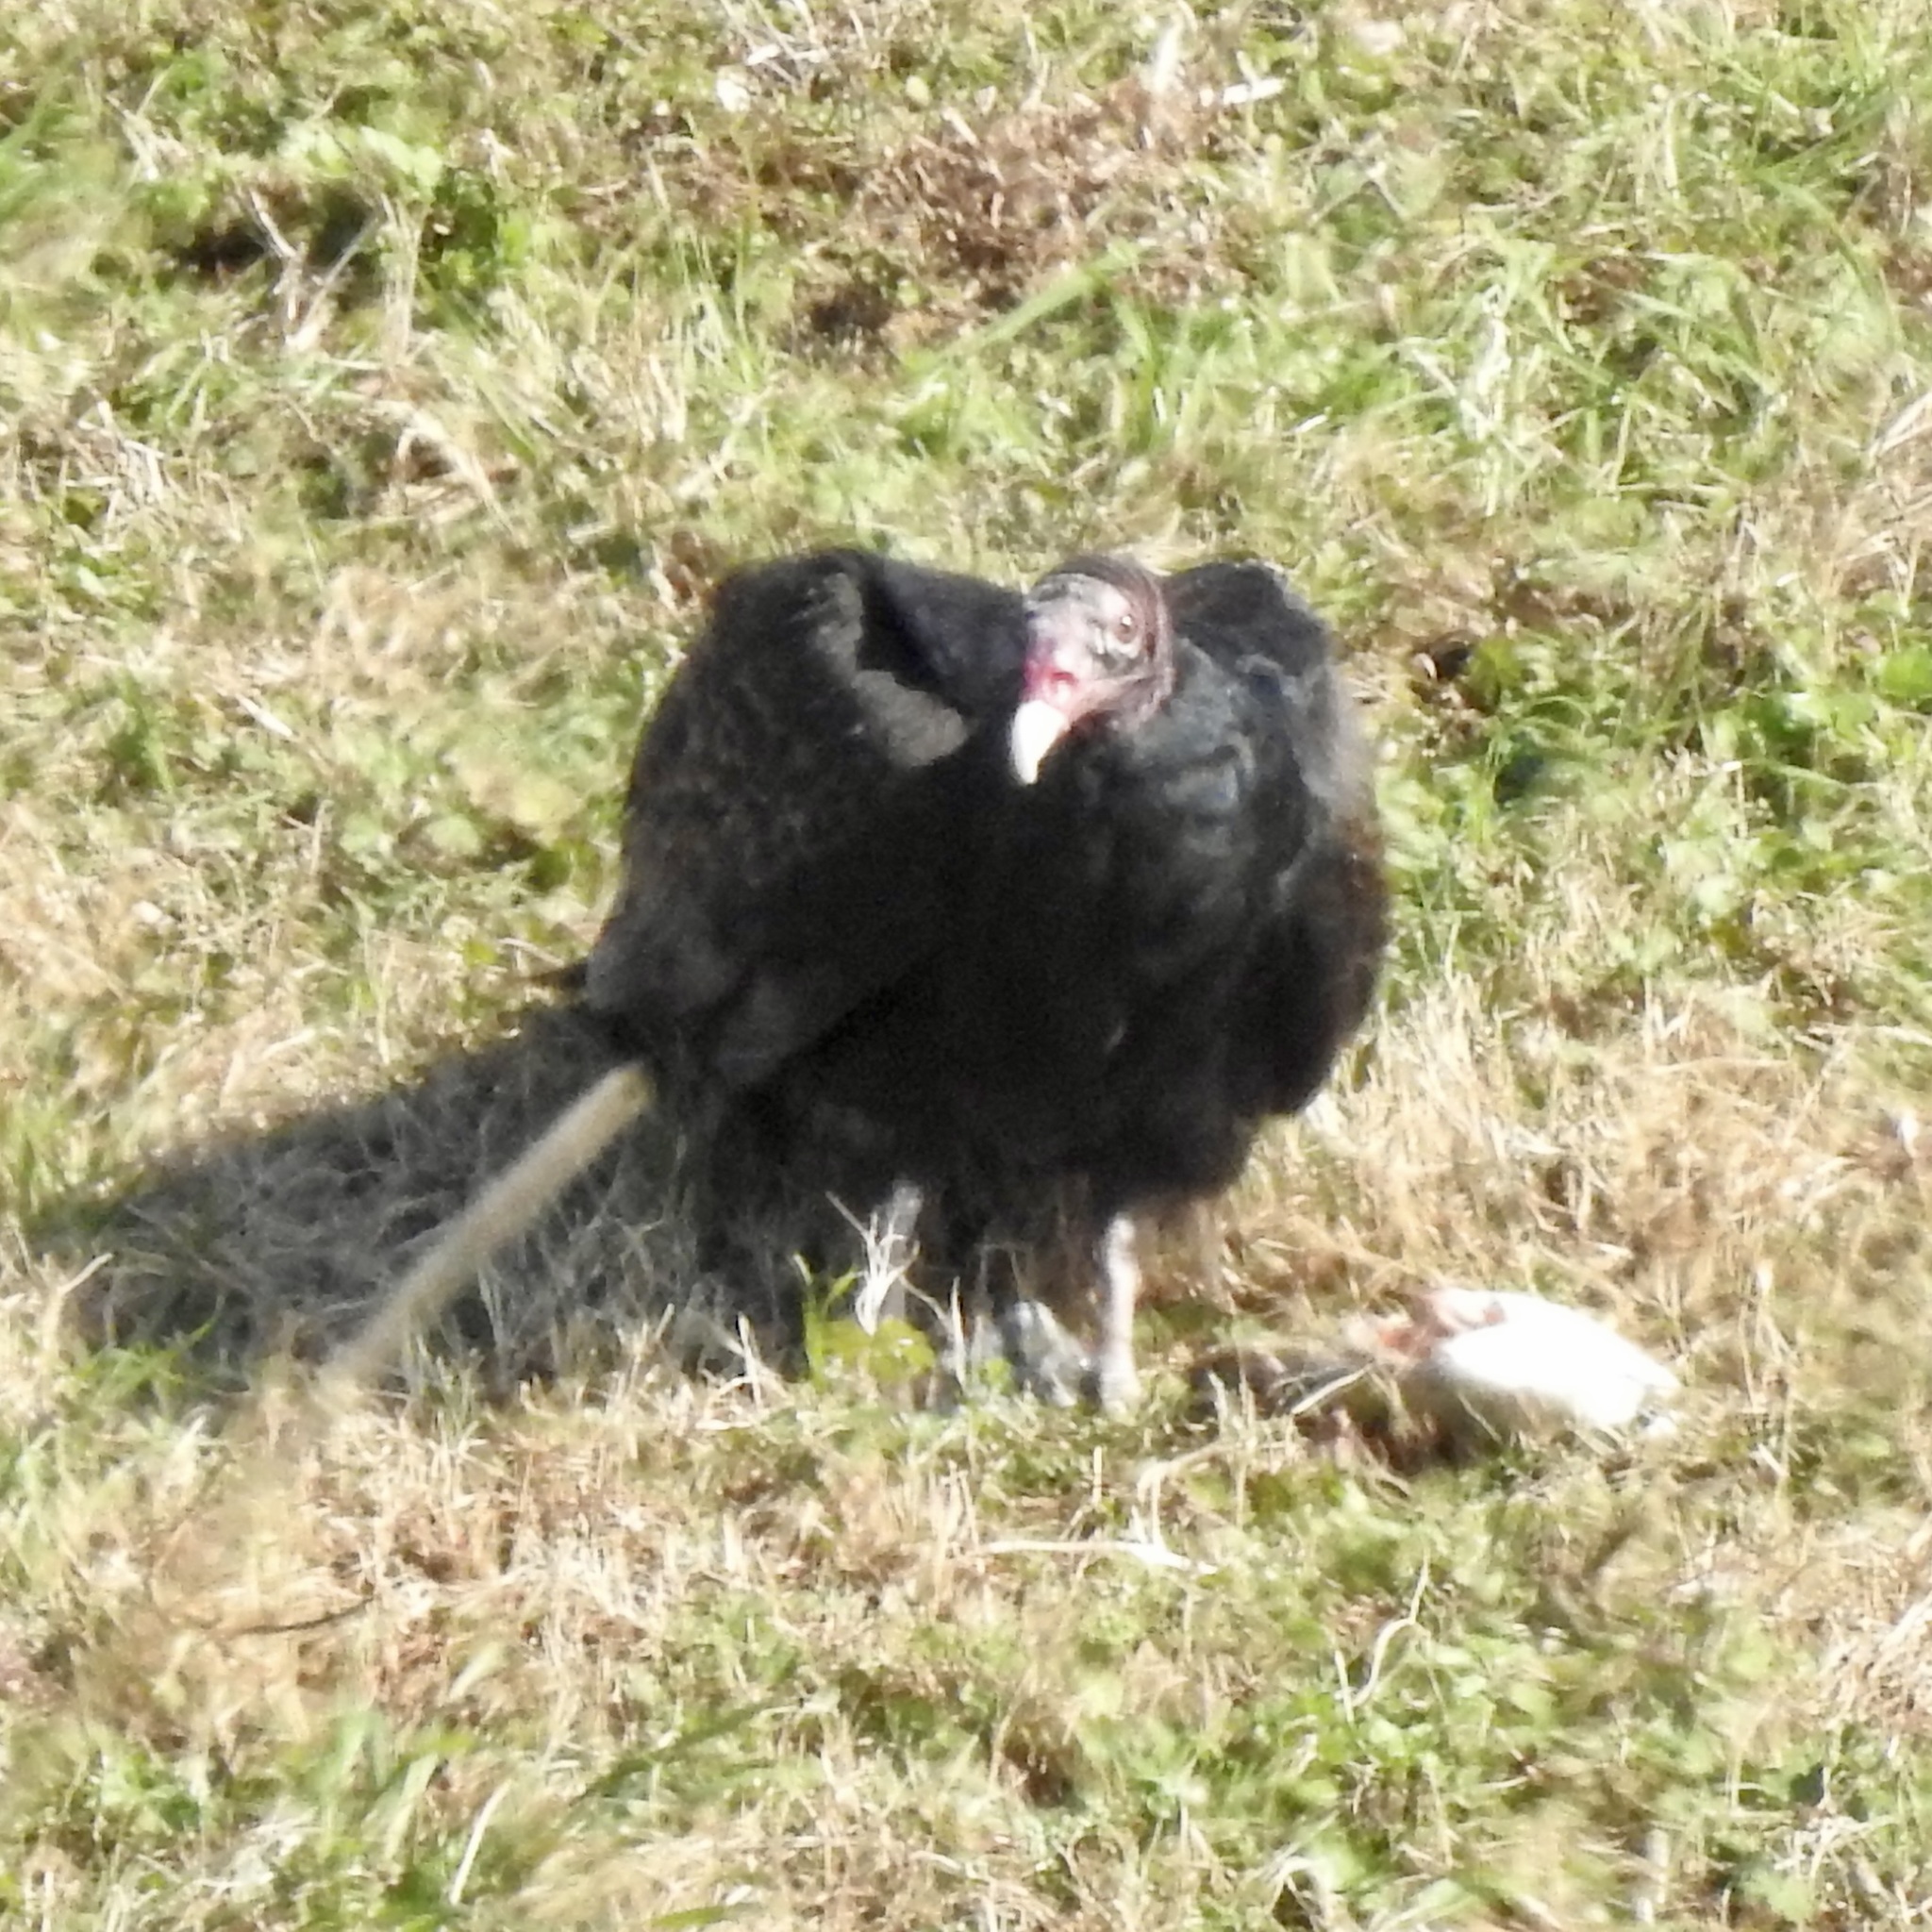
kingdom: Animalia
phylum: Chordata
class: Aves
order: Accipitriformes
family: Cathartidae
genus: Cathartes
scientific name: Cathartes aura
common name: Turkey vulture
